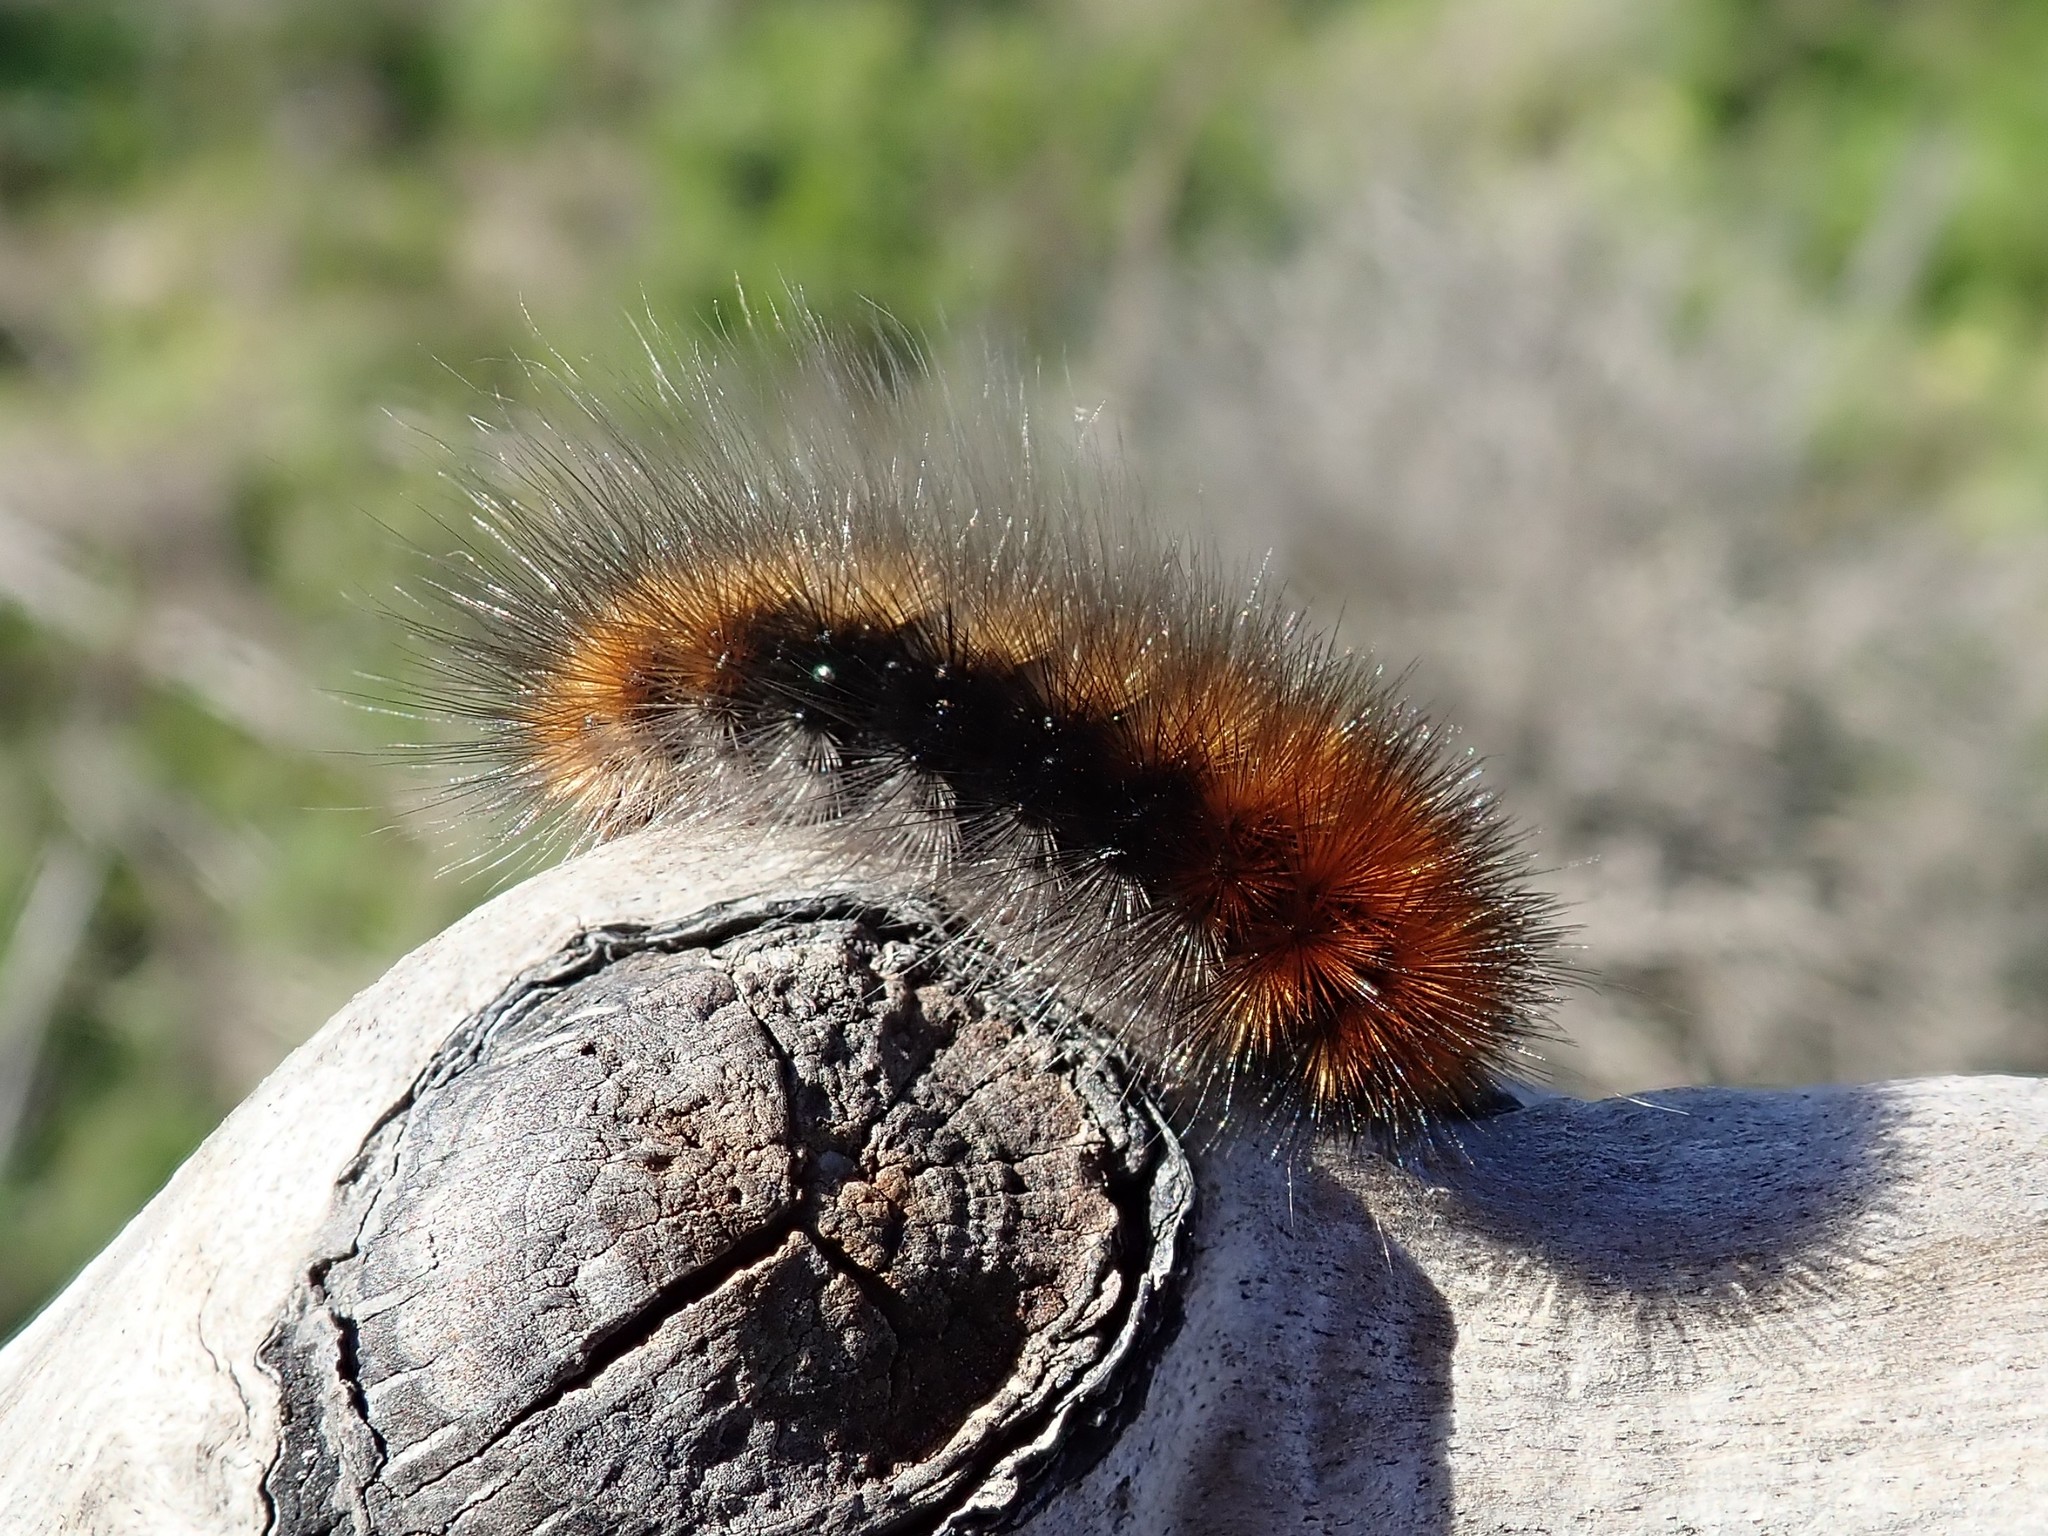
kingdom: Animalia
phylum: Arthropoda
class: Insecta
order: Lepidoptera
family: Erebidae
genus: Arctia
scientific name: Arctia tigrina
